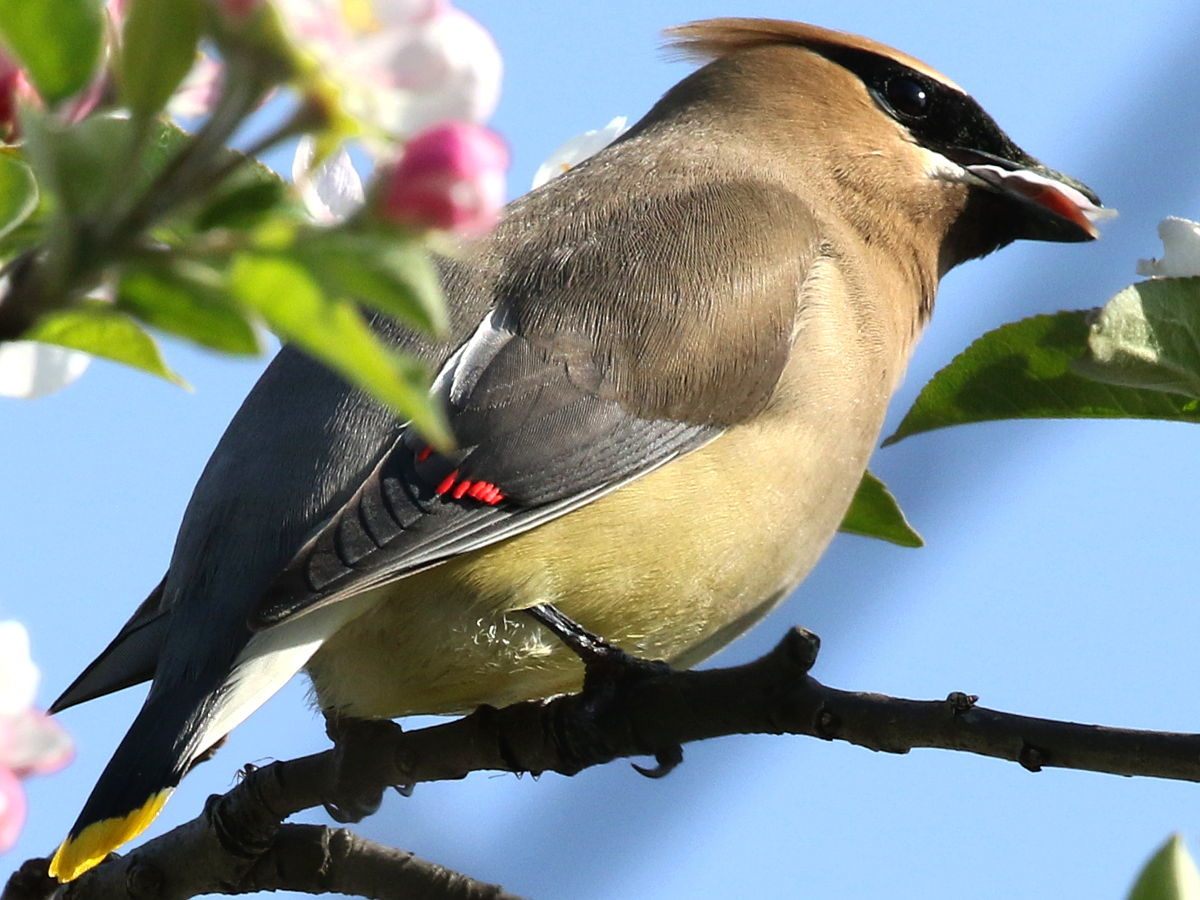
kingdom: Animalia
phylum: Chordata
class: Aves
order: Passeriformes
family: Bombycillidae
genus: Bombycilla
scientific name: Bombycilla cedrorum
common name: Cedar waxwing
